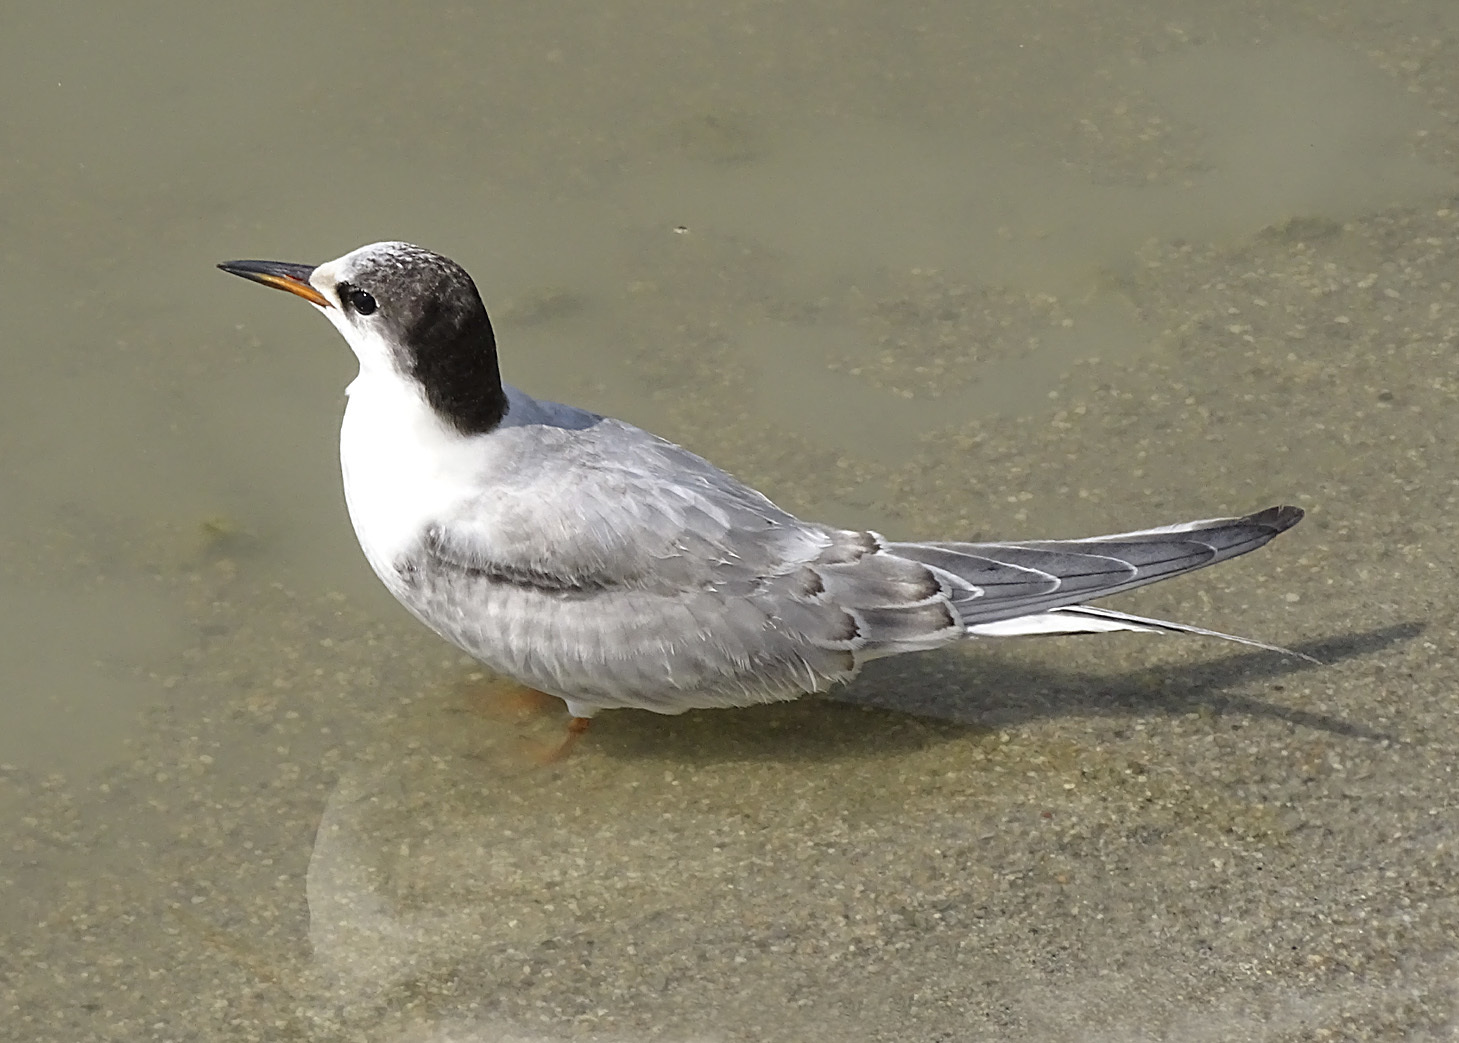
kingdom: Animalia
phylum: Chordata
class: Aves
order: Charadriiformes
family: Laridae
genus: Sterna
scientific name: Sterna hirundo
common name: Common tern
